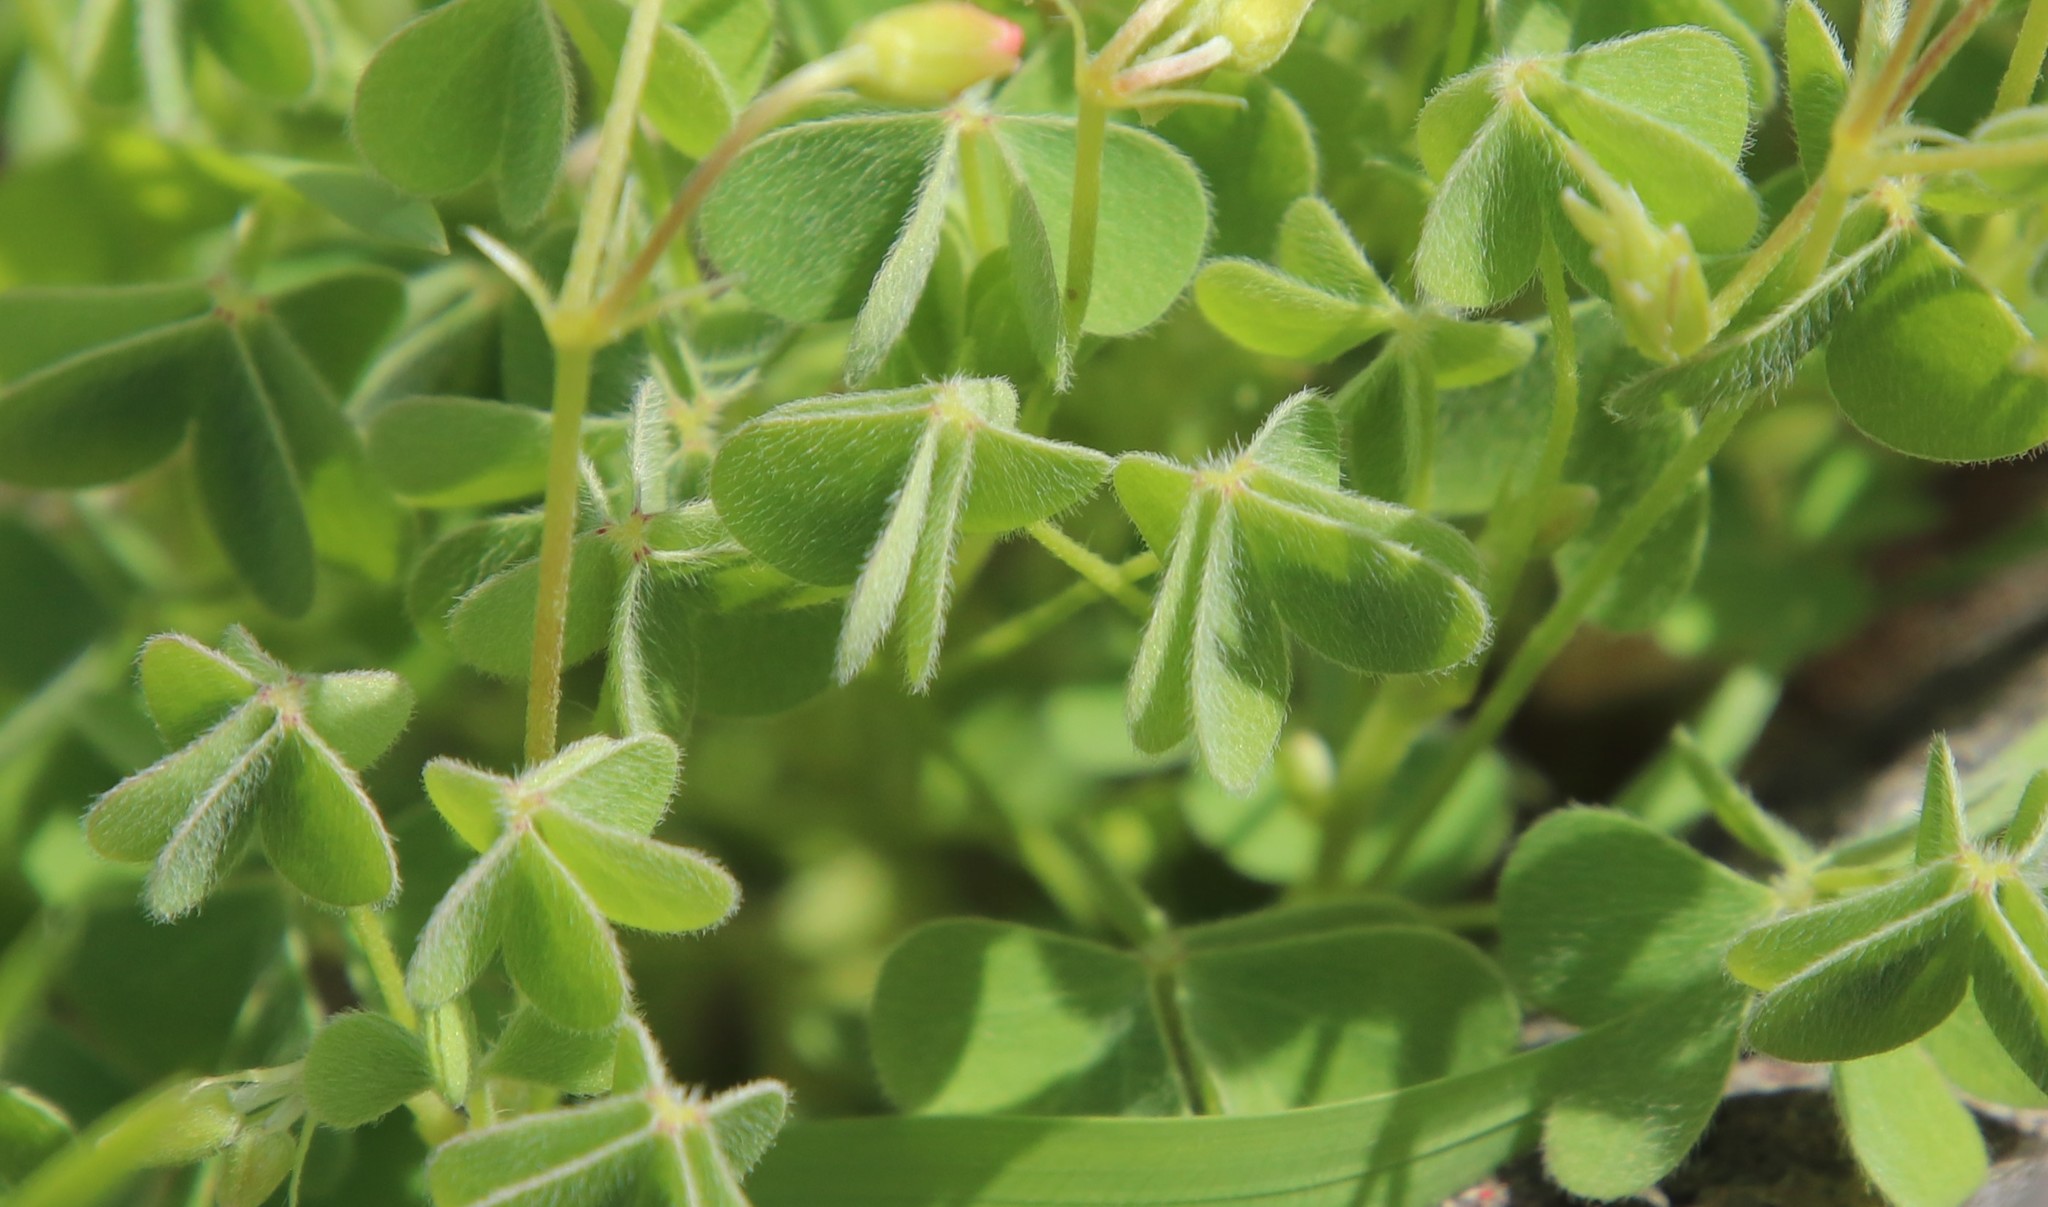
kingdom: Plantae
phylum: Tracheophyta
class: Magnoliopsida
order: Oxalidales
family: Oxalidaceae
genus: Oxalis
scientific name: Oxalis californica
